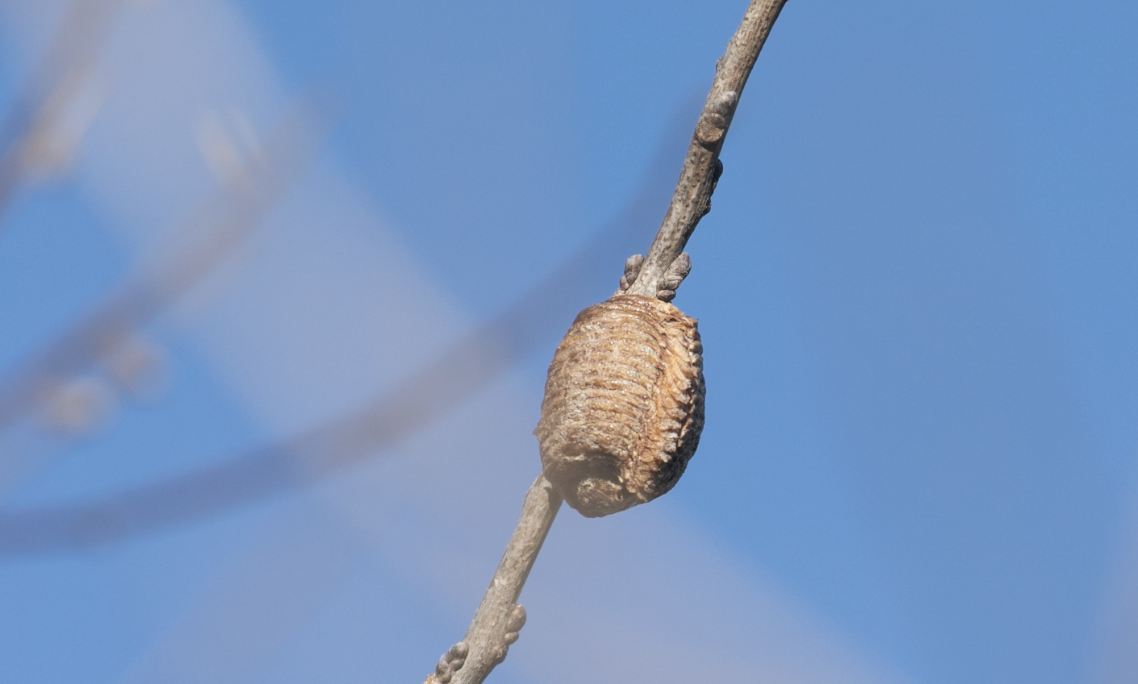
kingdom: Animalia
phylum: Arthropoda
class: Insecta
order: Mantodea
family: Mantidae
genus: Hierodula
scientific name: Hierodula transcaucasica
